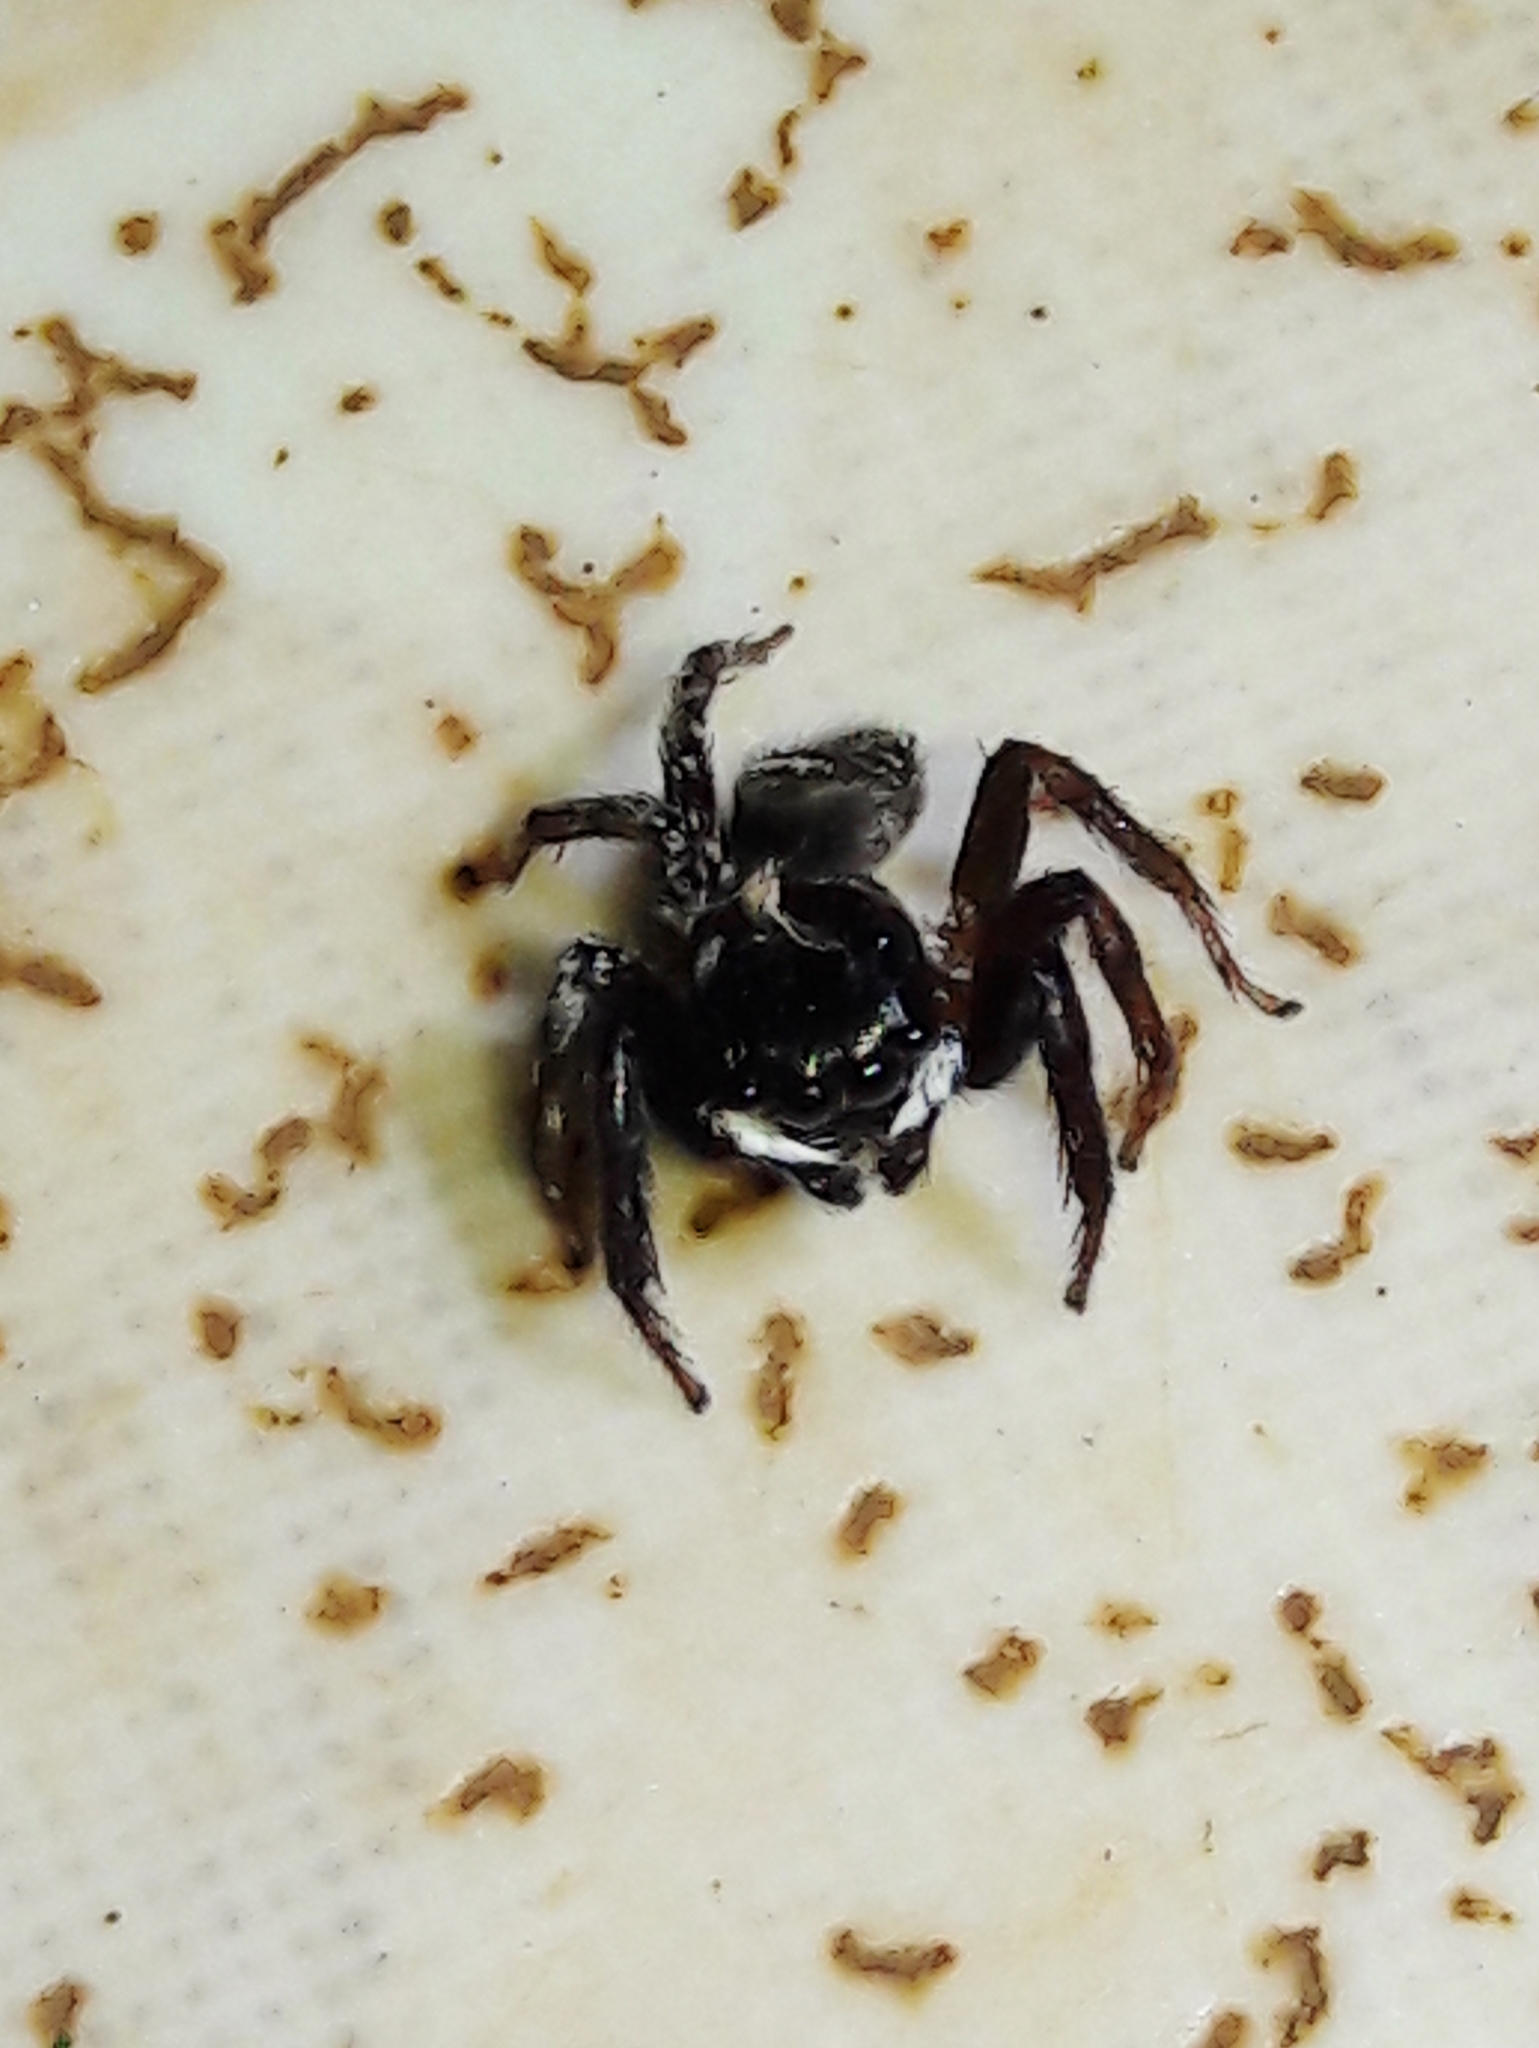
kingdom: Animalia
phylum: Arthropoda
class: Arachnida
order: Araneae
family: Salticidae
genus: Hasarius
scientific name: Hasarius adansoni
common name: Jumping spider
